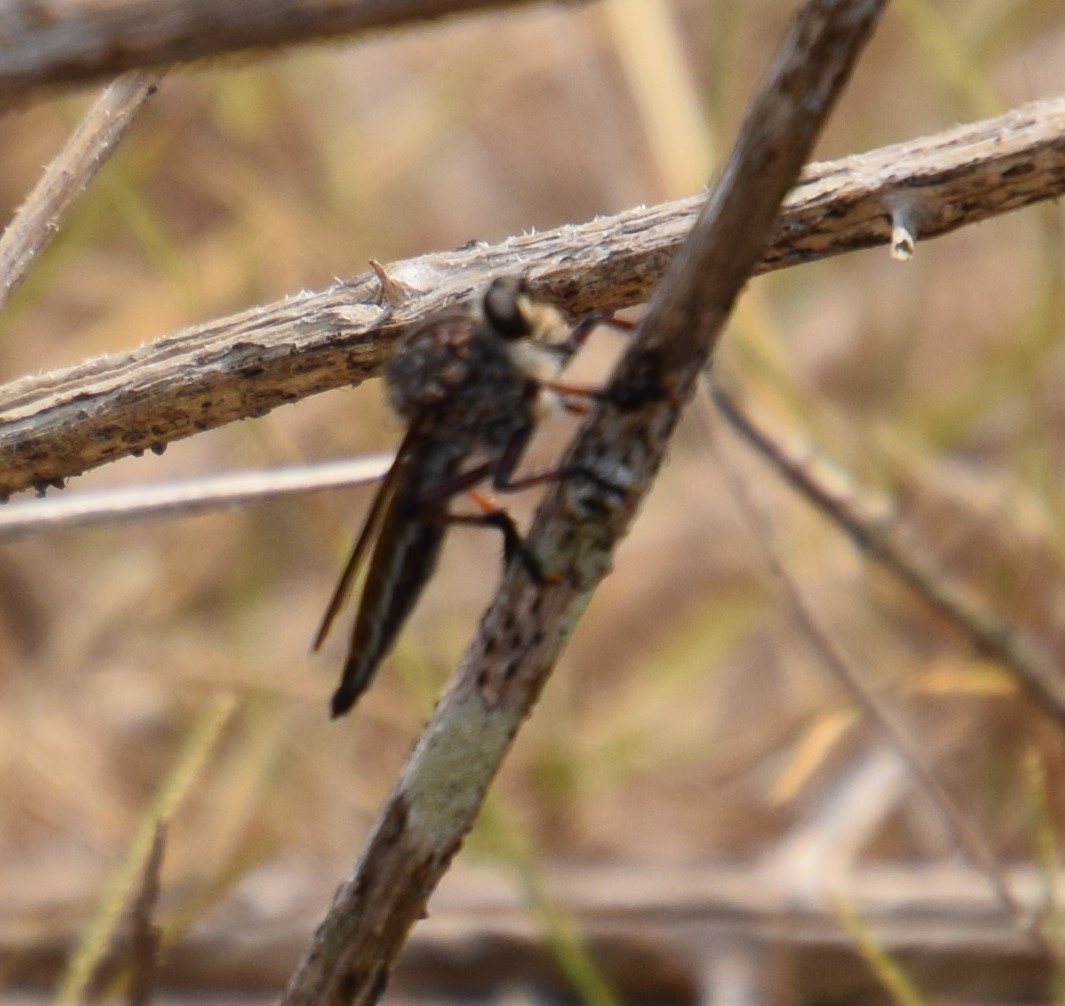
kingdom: Animalia
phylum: Arthropoda
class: Insecta
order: Diptera
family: Asilidae
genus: Neoaratus
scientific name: Neoaratus hercules
